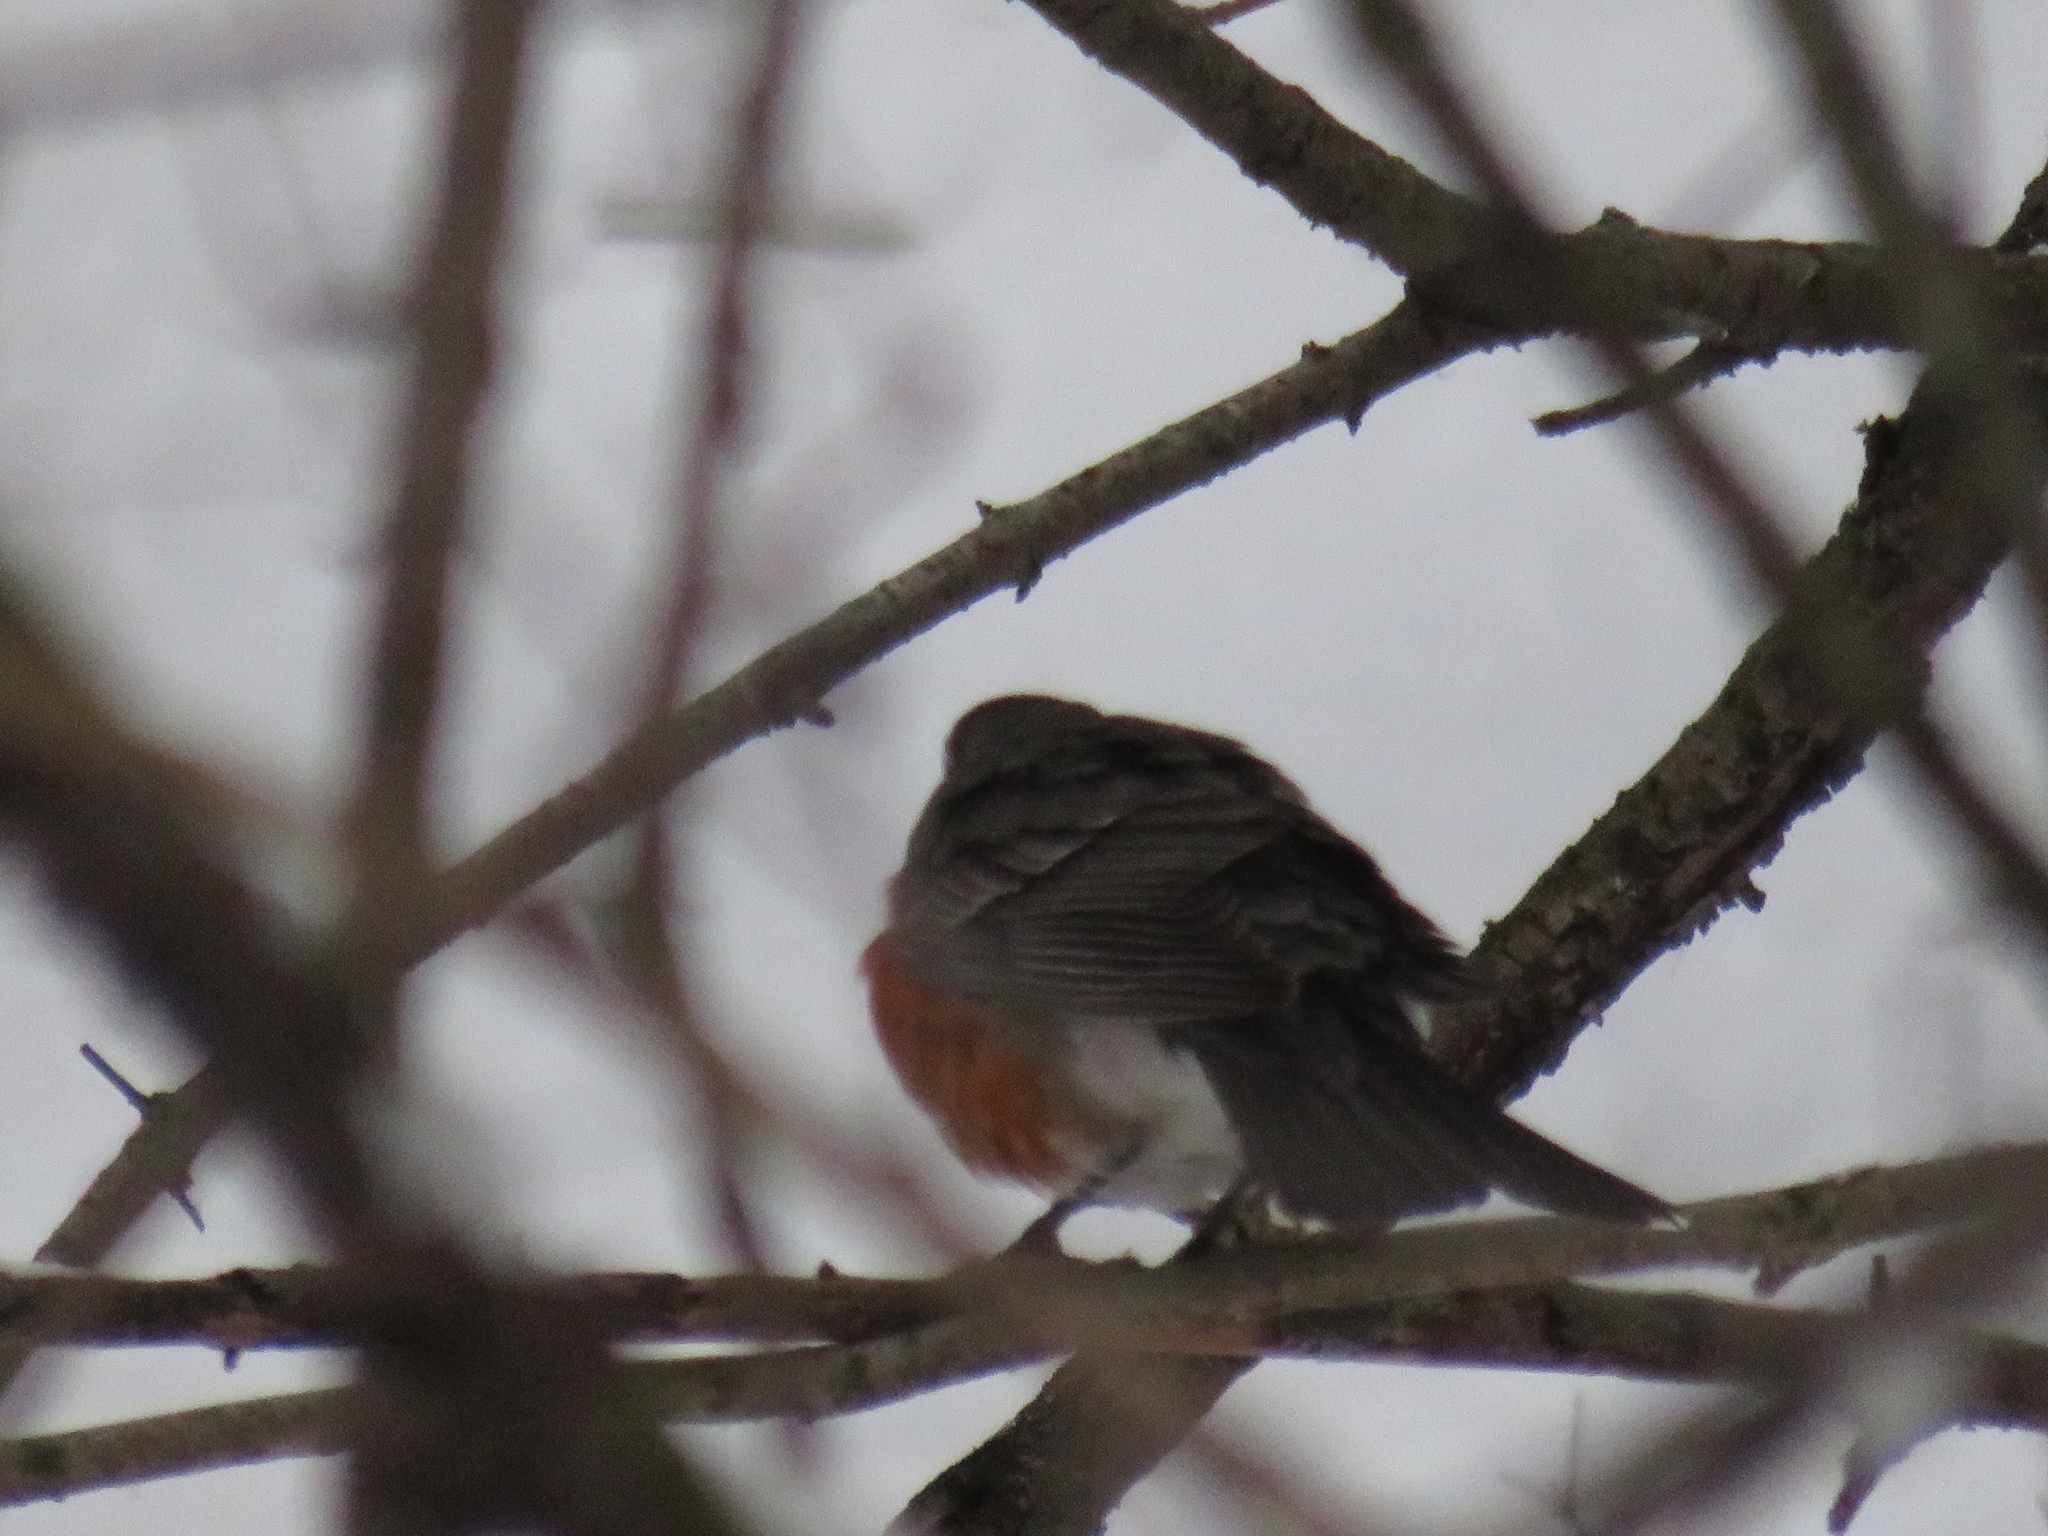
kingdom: Animalia
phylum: Chordata
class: Aves
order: Passeriformes
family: Turdidae
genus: Turdus
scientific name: Turdus migratorius
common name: American robin
